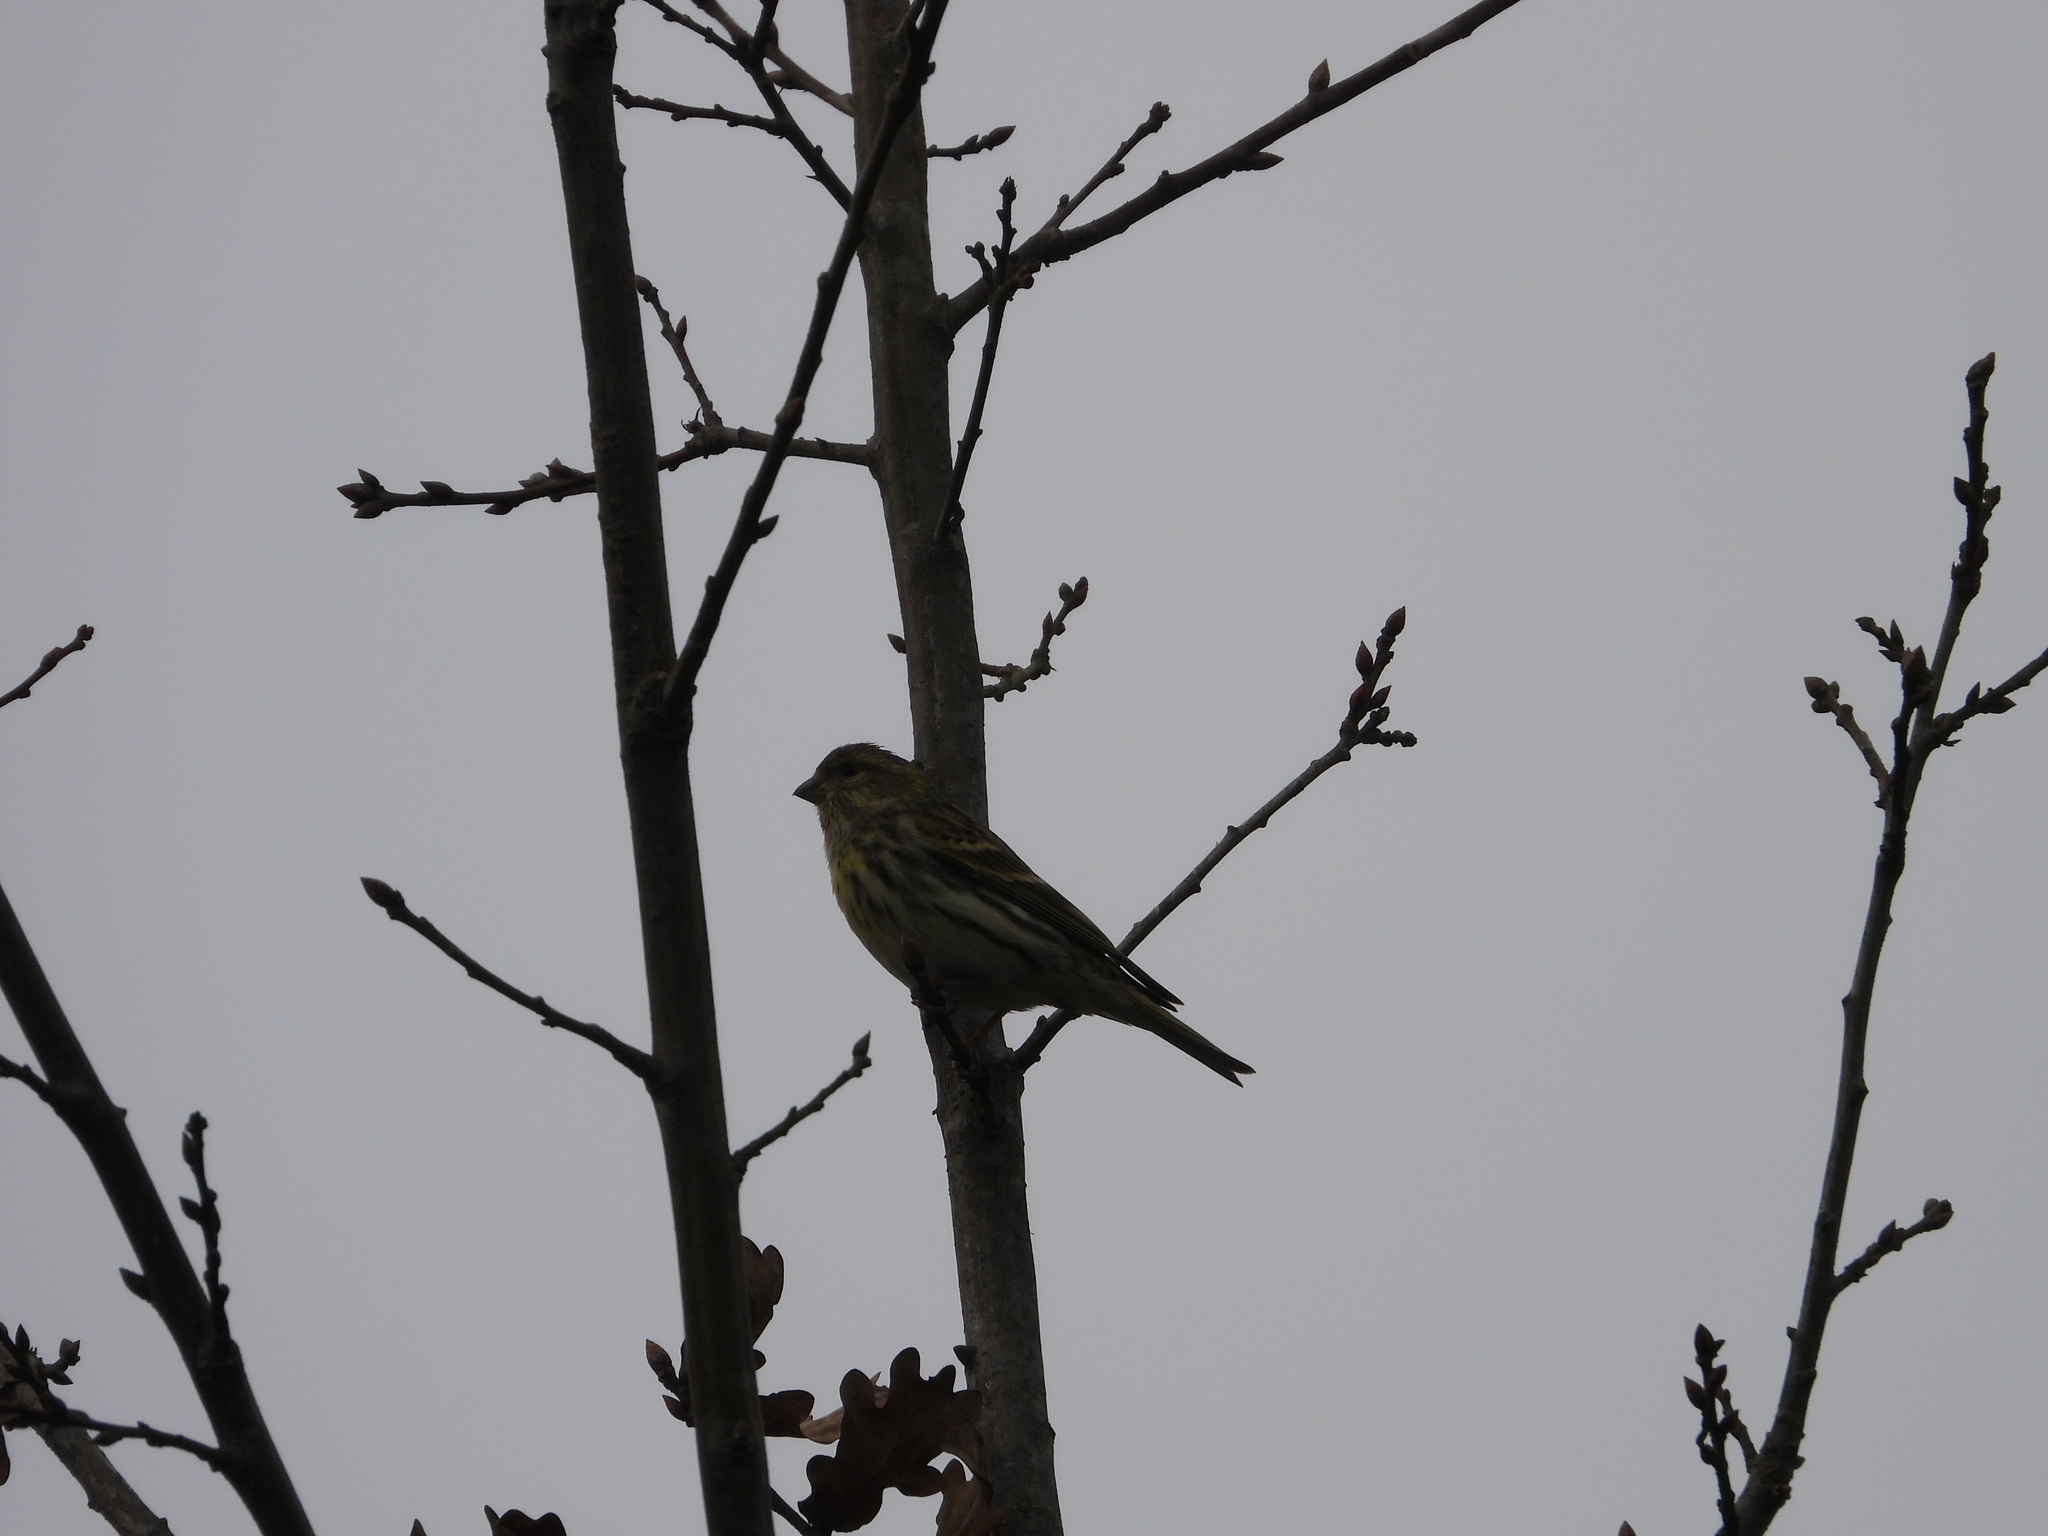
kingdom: Animalia
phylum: Chordata
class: Aves
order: Passeriformes
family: Fringillidae
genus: Serinus
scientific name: Serinus serinus
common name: European serin
